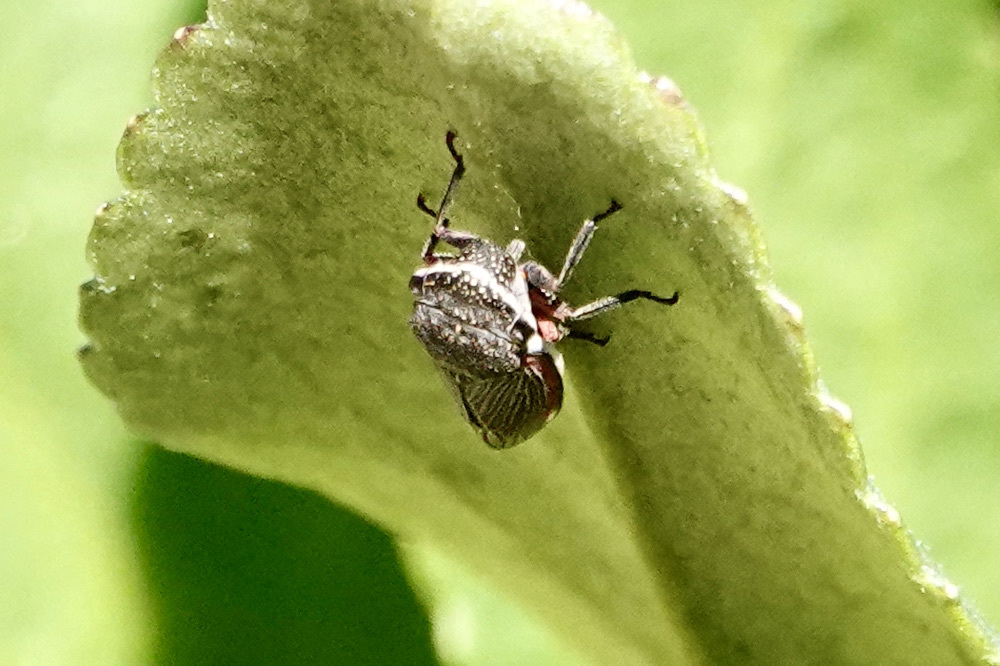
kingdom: Animalia
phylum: Arthropoda
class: Insecta
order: Hemiptera
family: Cicadellidae
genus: Cuerna
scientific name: Cuerna costalis
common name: Lateral-lined sharpshooter
